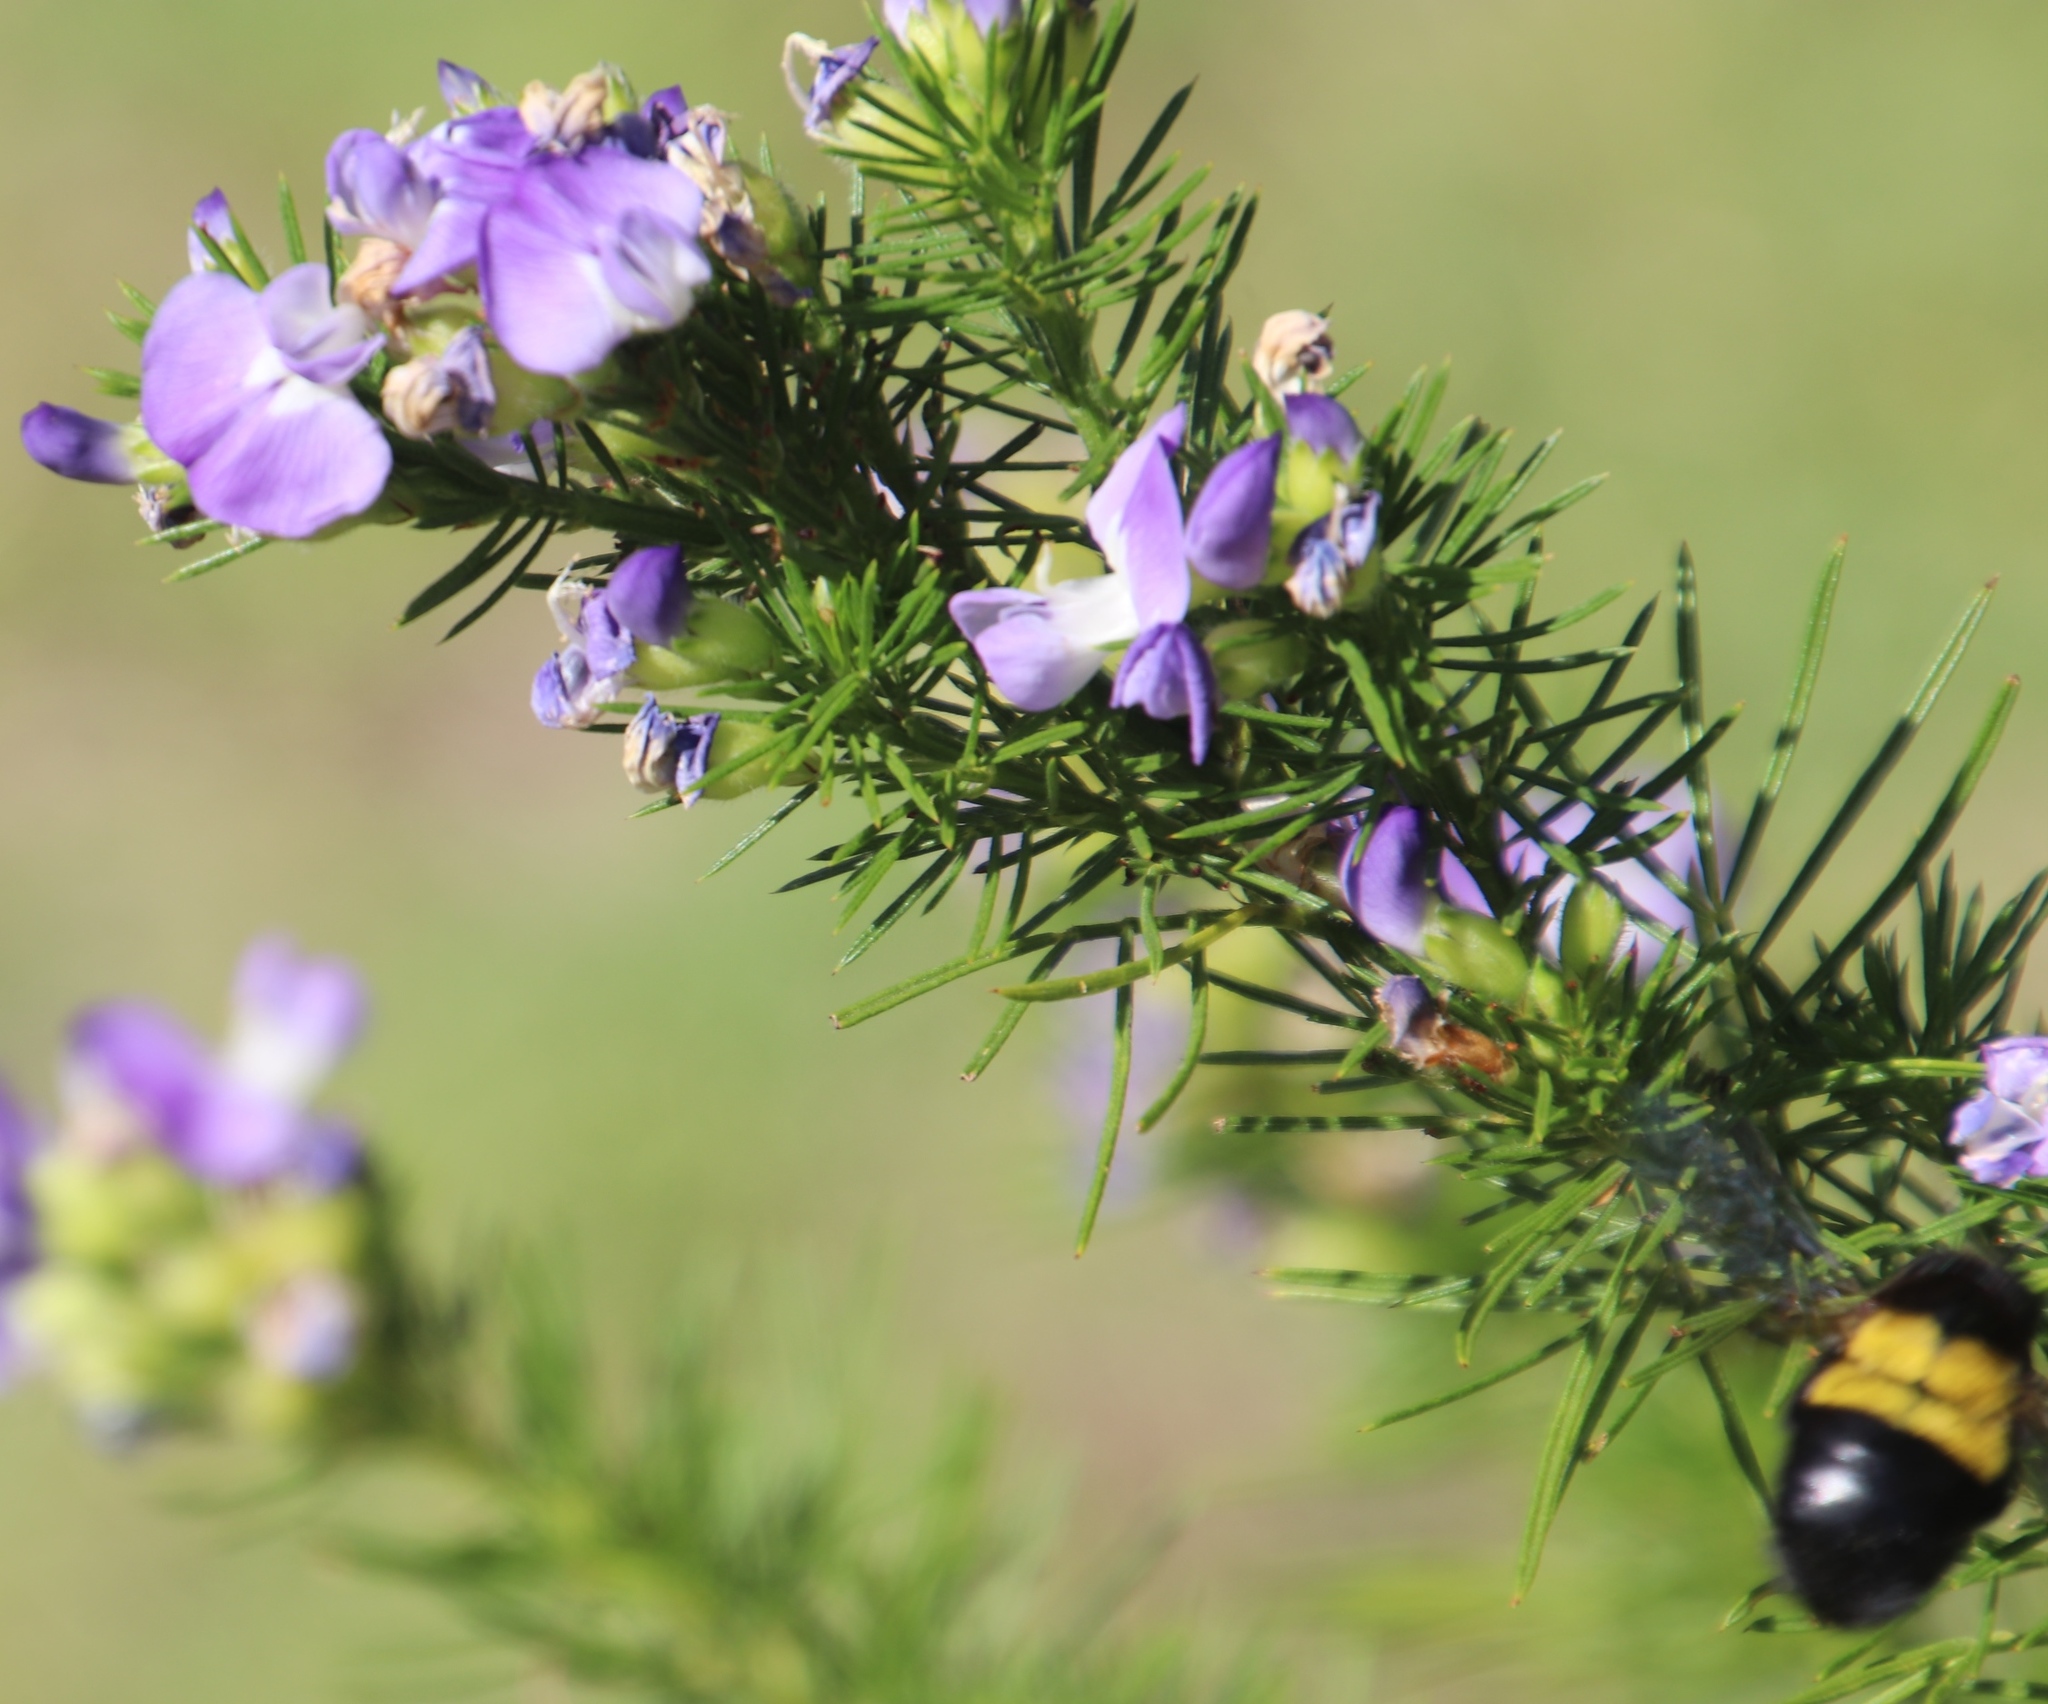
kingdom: Animalia
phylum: Arthropoda
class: Insecta
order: Hymenoptera
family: Apidae
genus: Xylocopa
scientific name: Xylocopa caffra
